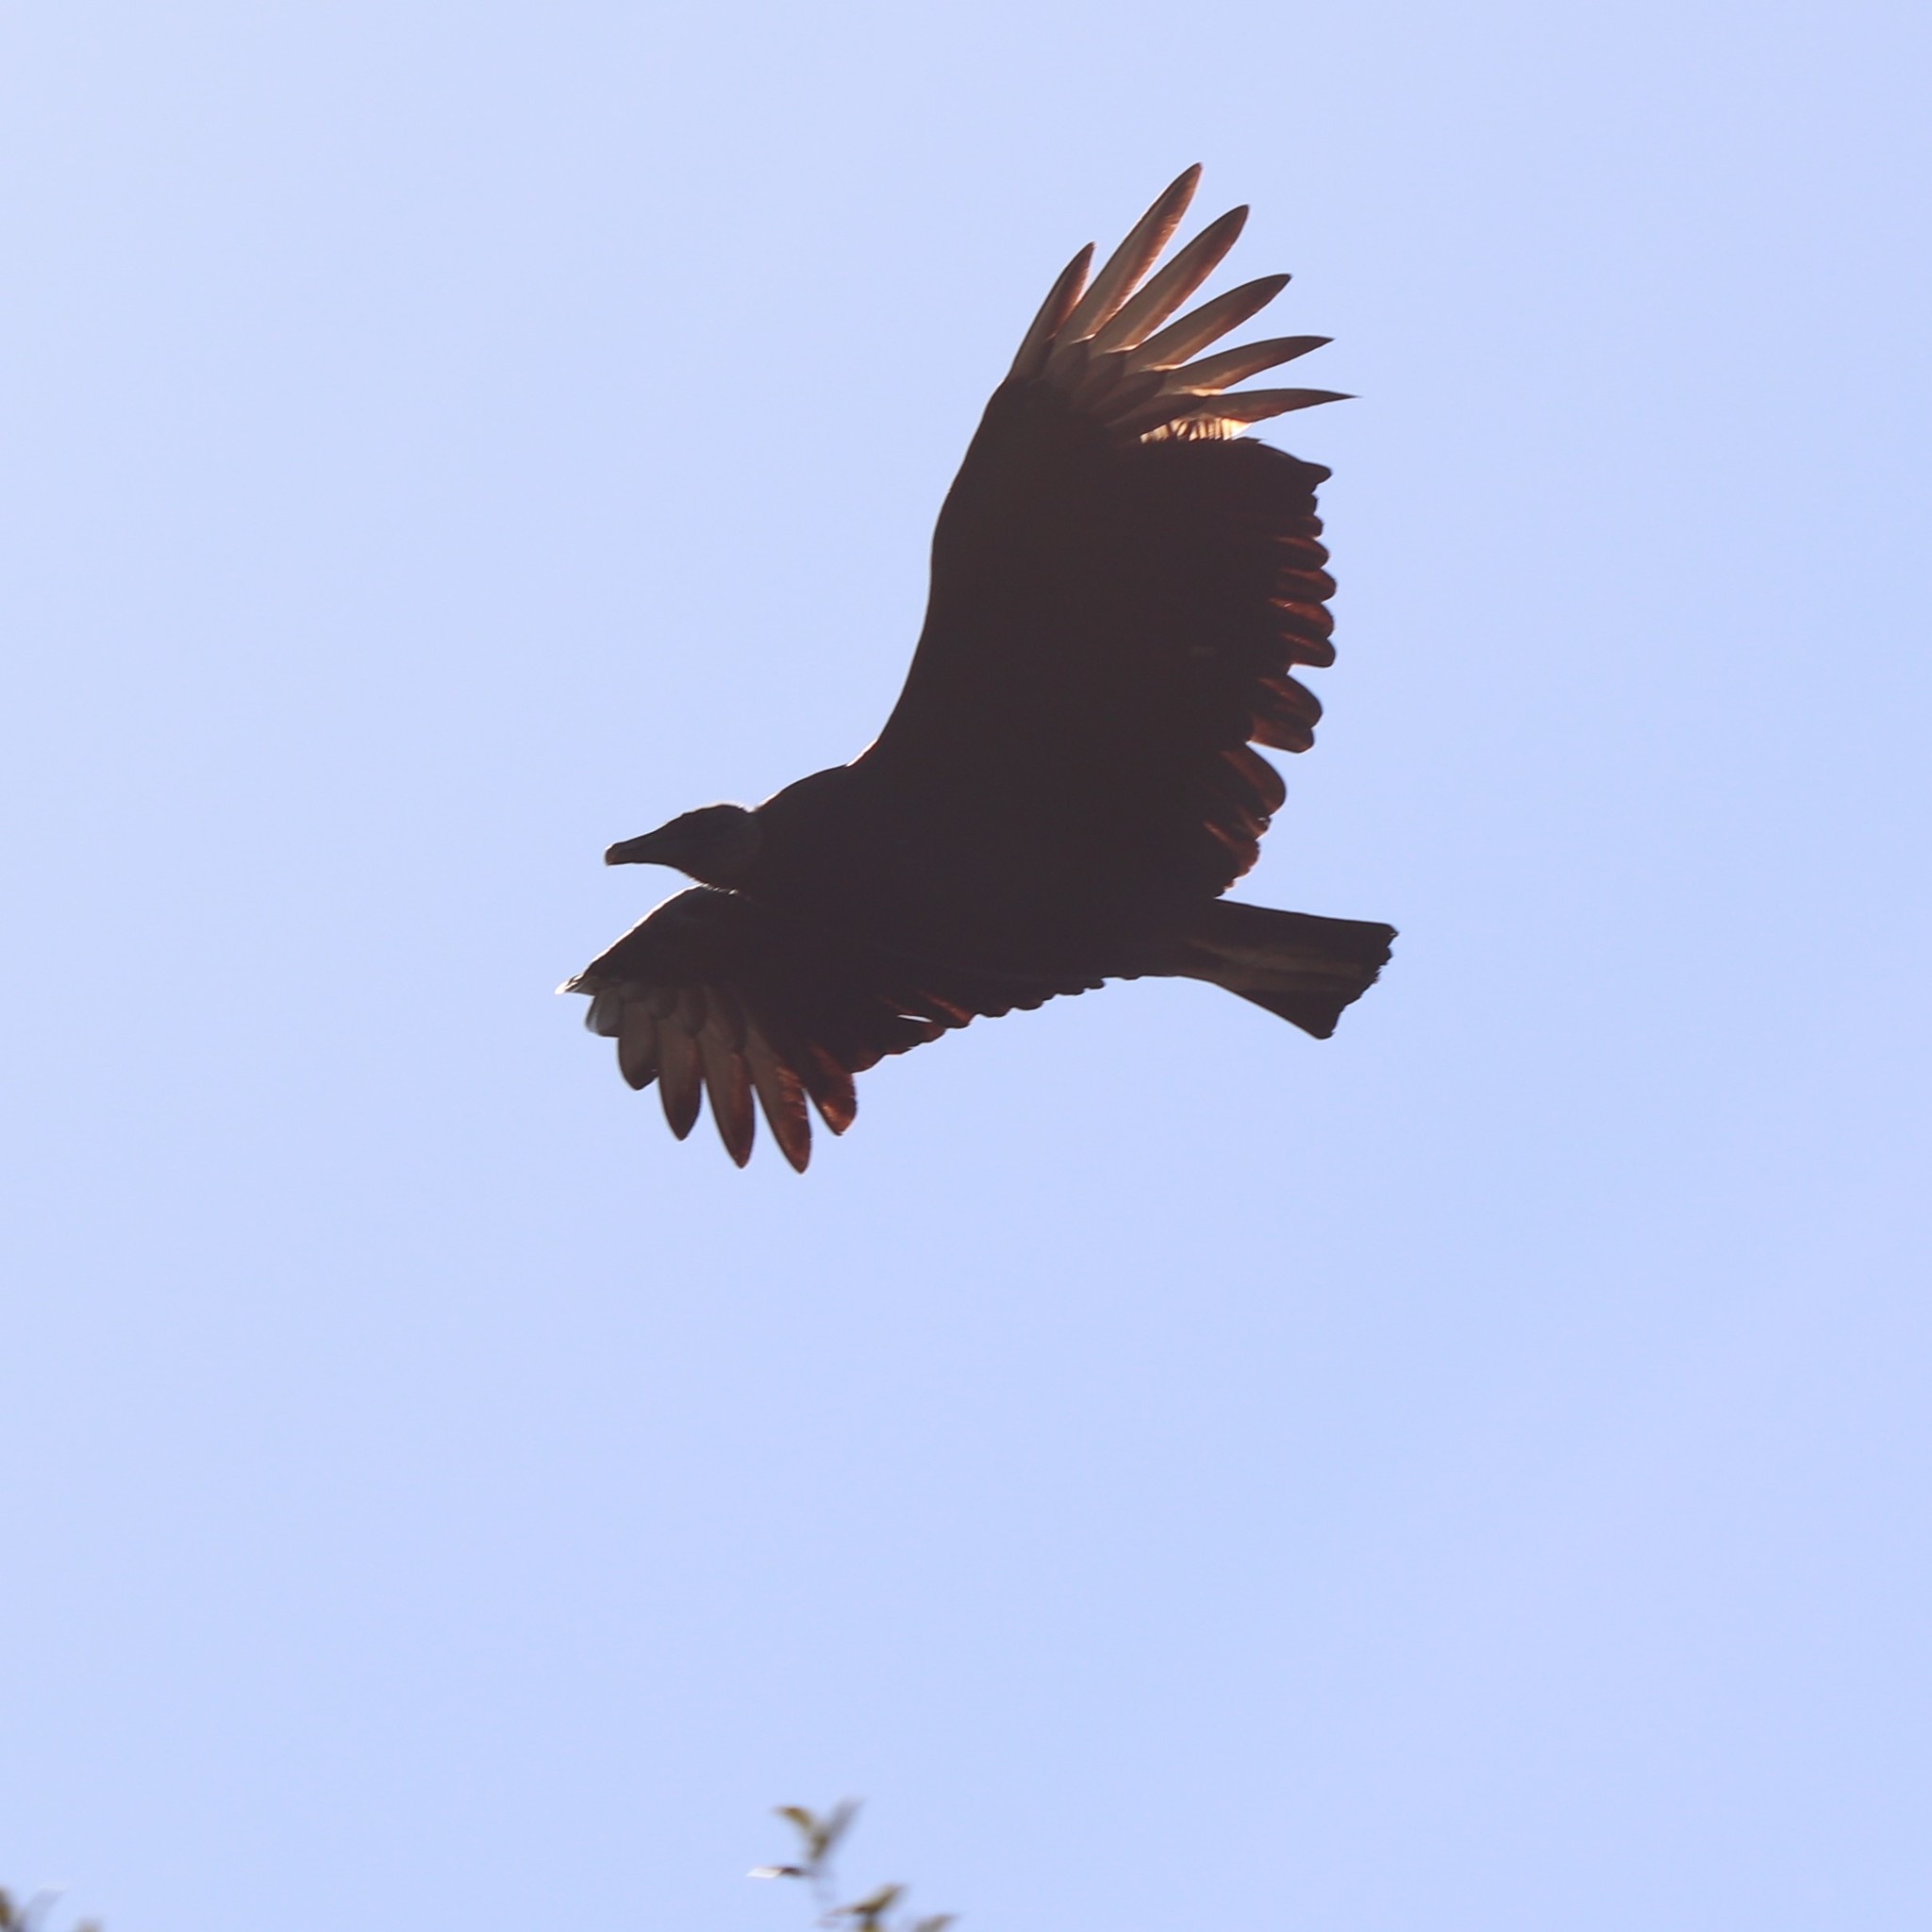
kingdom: Animalia
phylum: Chordata
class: Aves
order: Accipitriformes
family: Cathartidae
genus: Coragyps
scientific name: Coragyps atratus
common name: Black vulture
